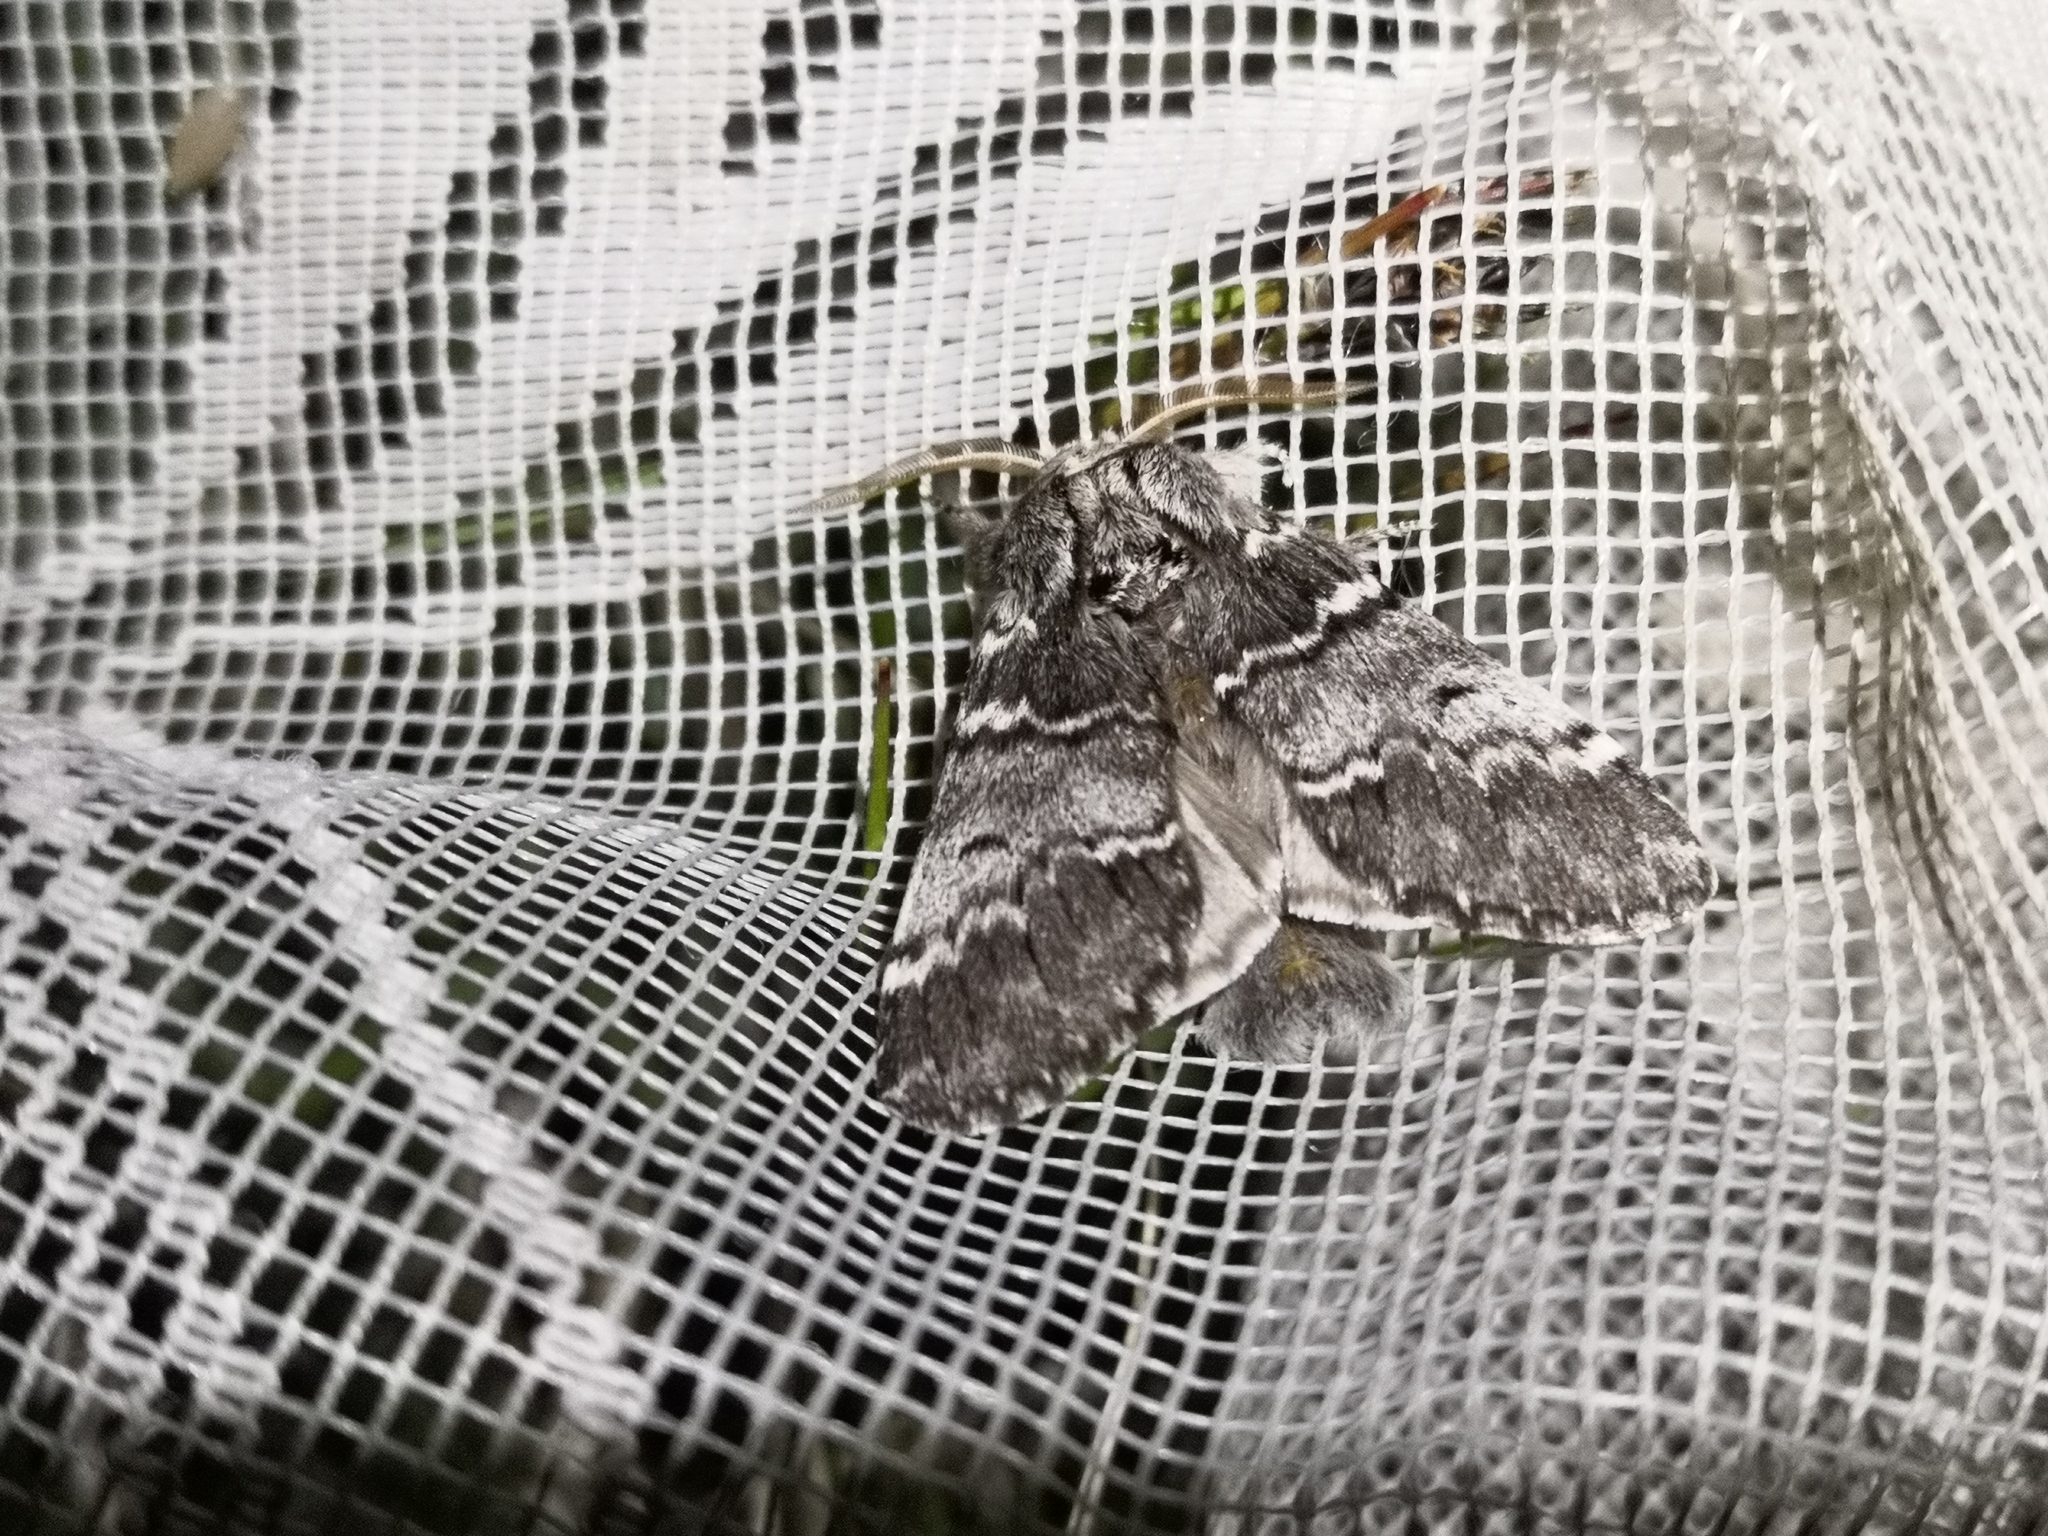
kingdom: Animalia
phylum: Arthropoda
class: Insecta
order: Lepidoptera
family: Notodontidae
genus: Drymonia
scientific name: Drymonia ruficornis
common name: Lunar marbled brown
